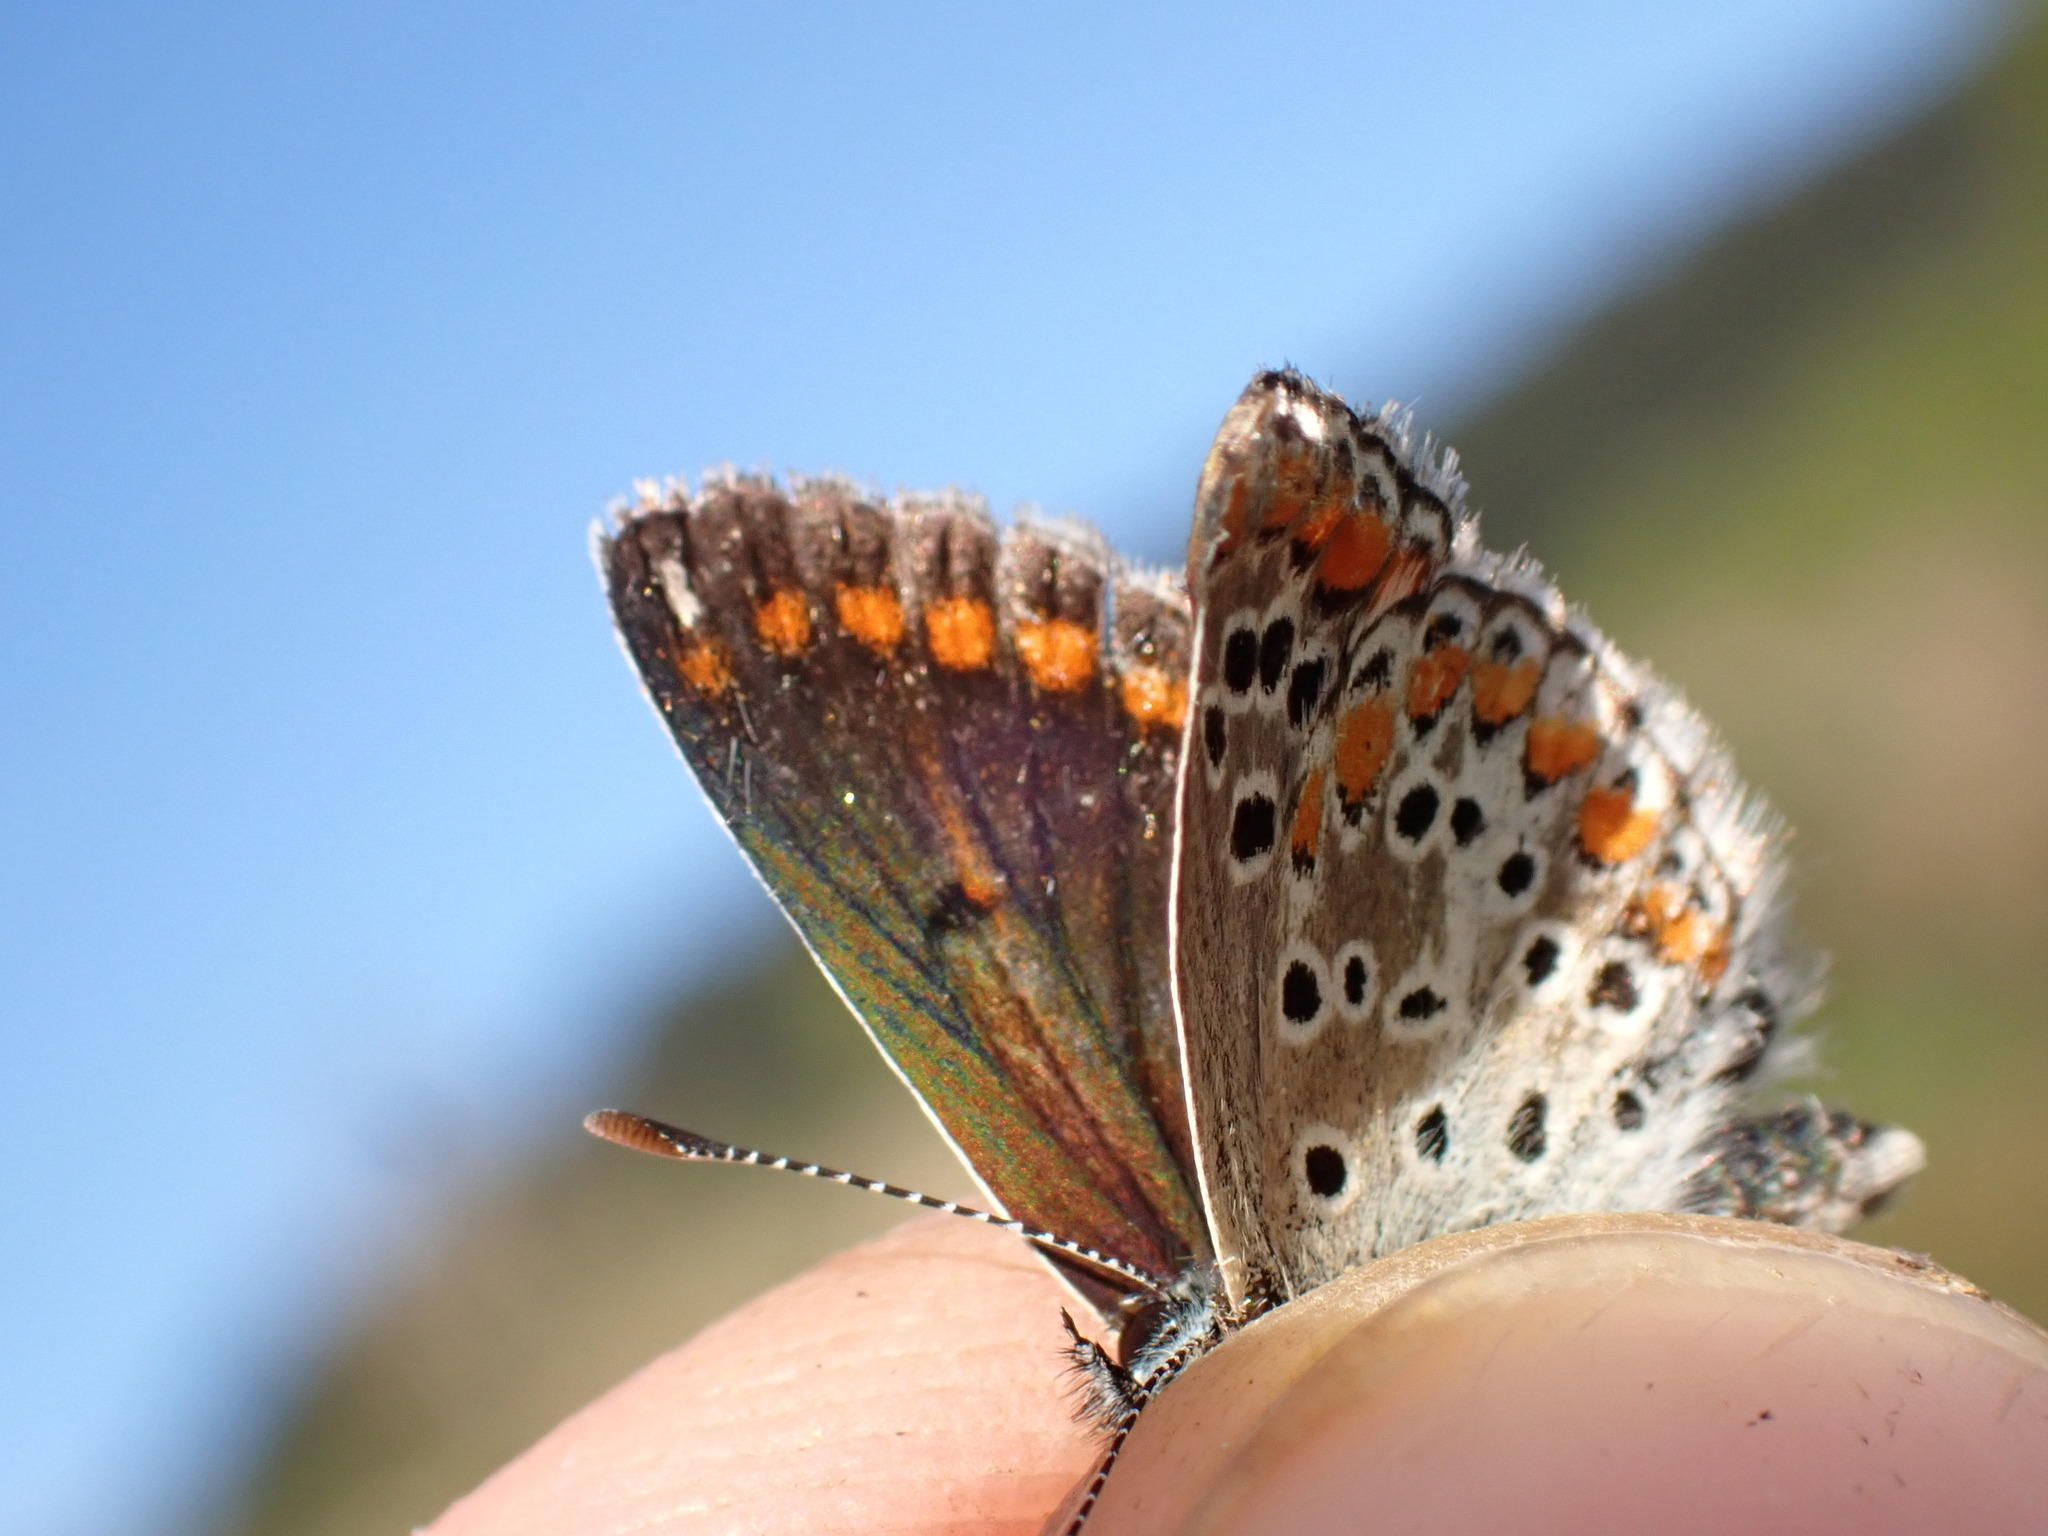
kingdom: Animalia
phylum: Arthropoda
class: Insecta
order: Lepidoptera
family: Lycaenidae
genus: Aricia
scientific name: Aricia agestis
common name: Brown argus
